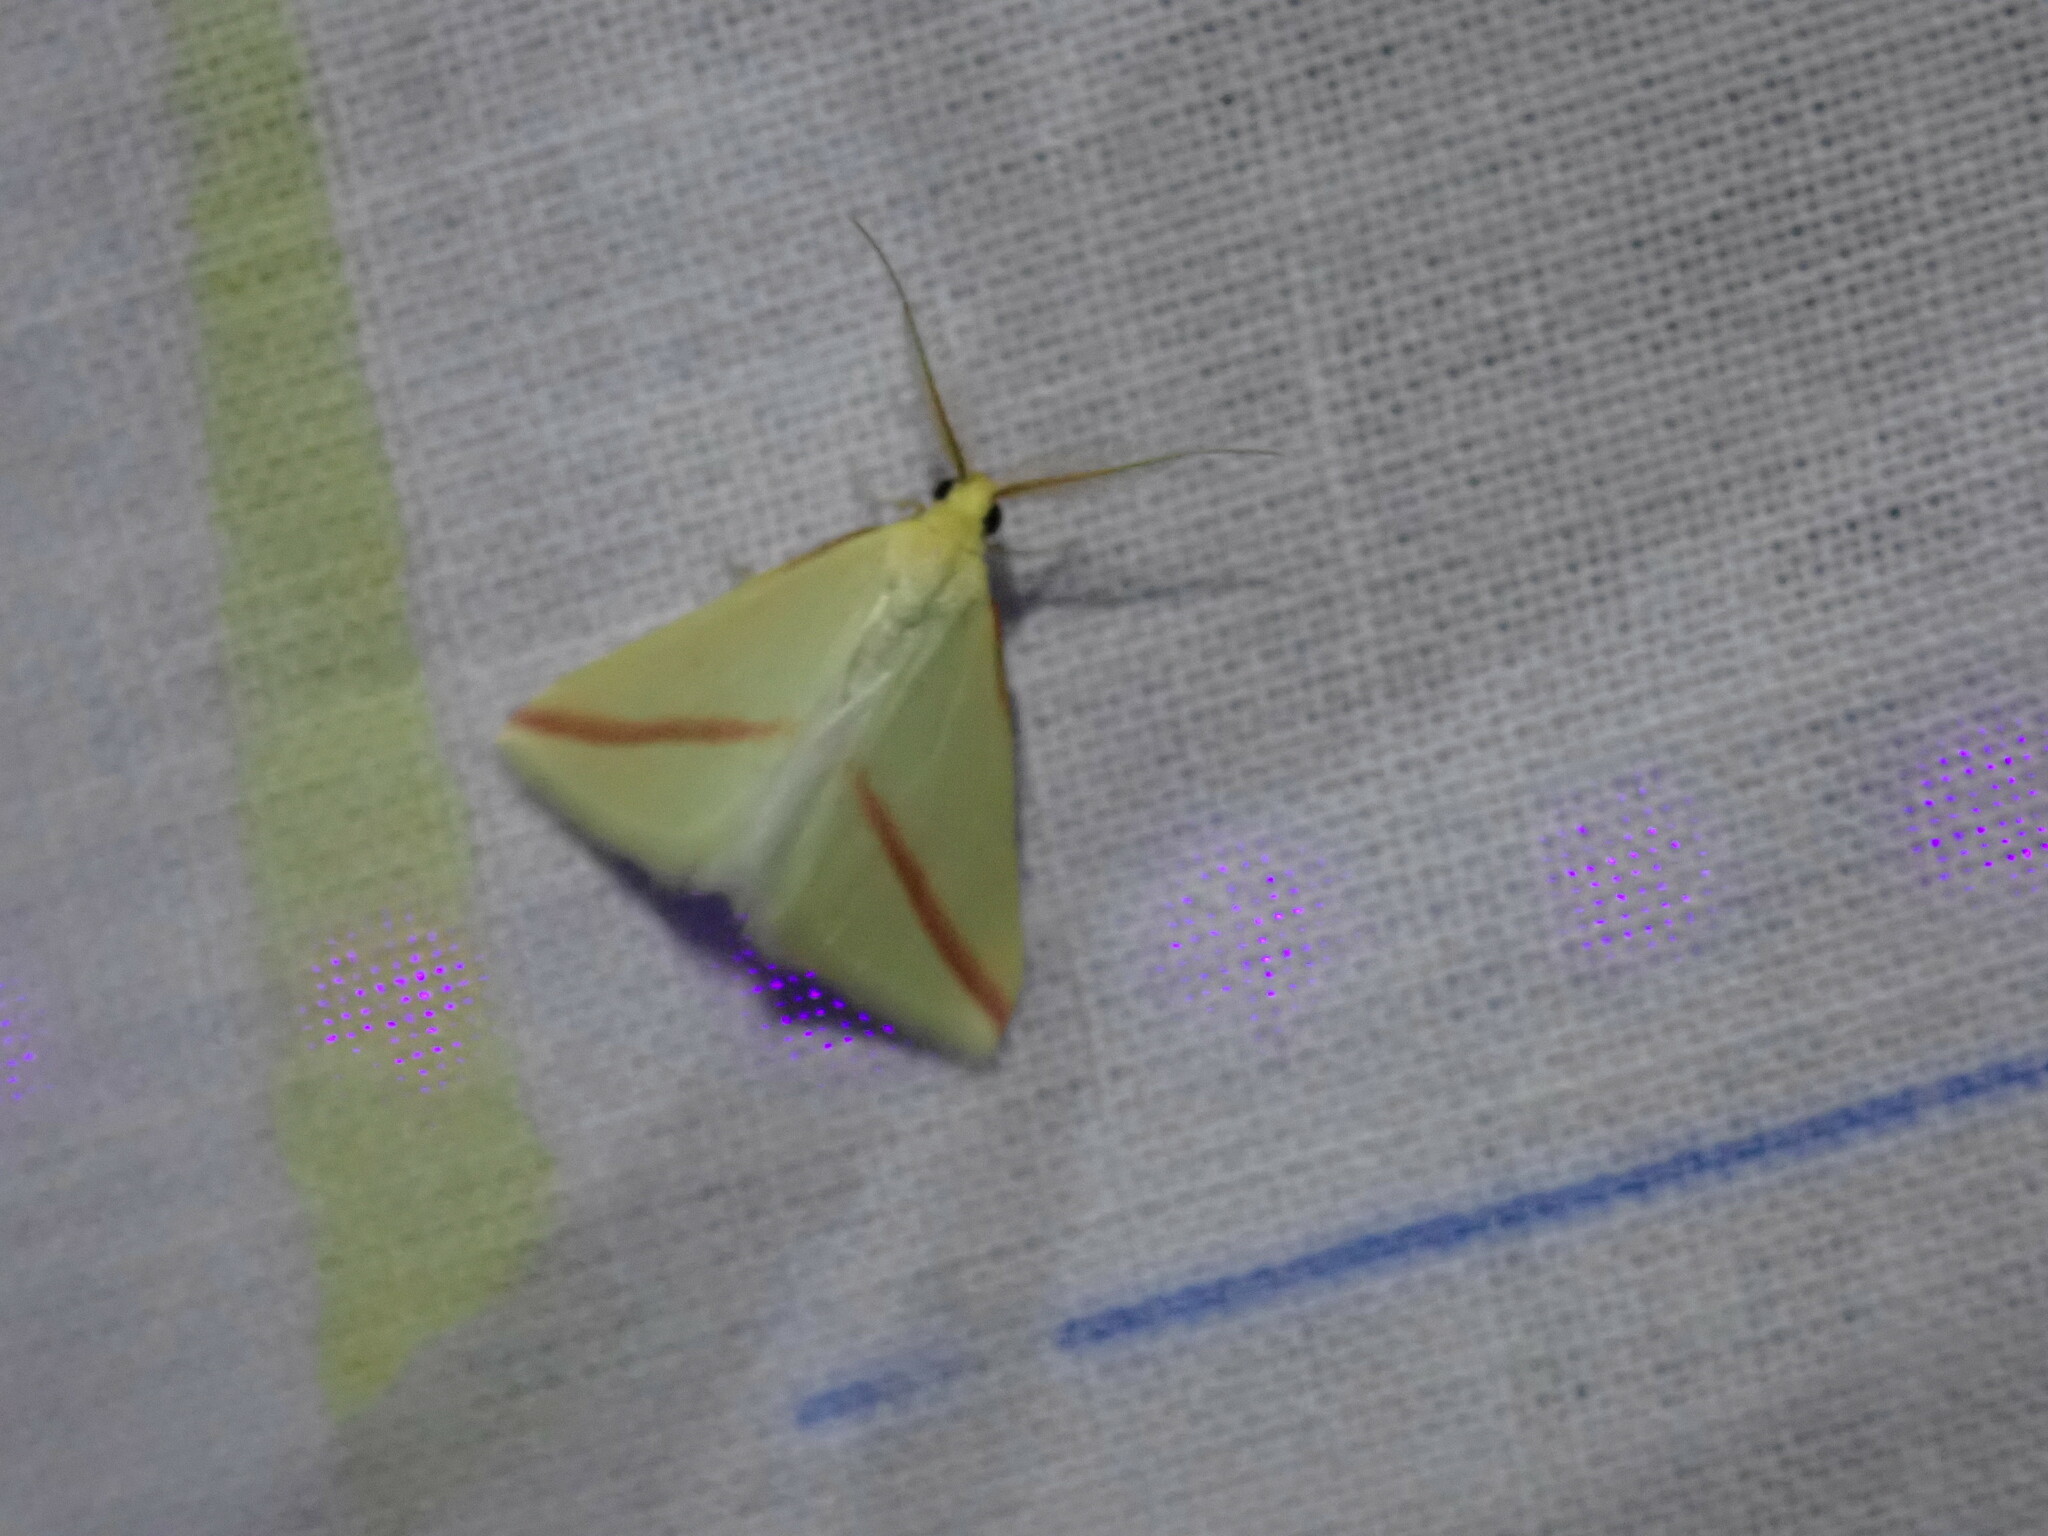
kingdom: Animalia
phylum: Arthropoda
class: Insecta
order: Lepidoptera
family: Geometridae
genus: Rhodometra
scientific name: Rhodometra sacraria
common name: Vestal
